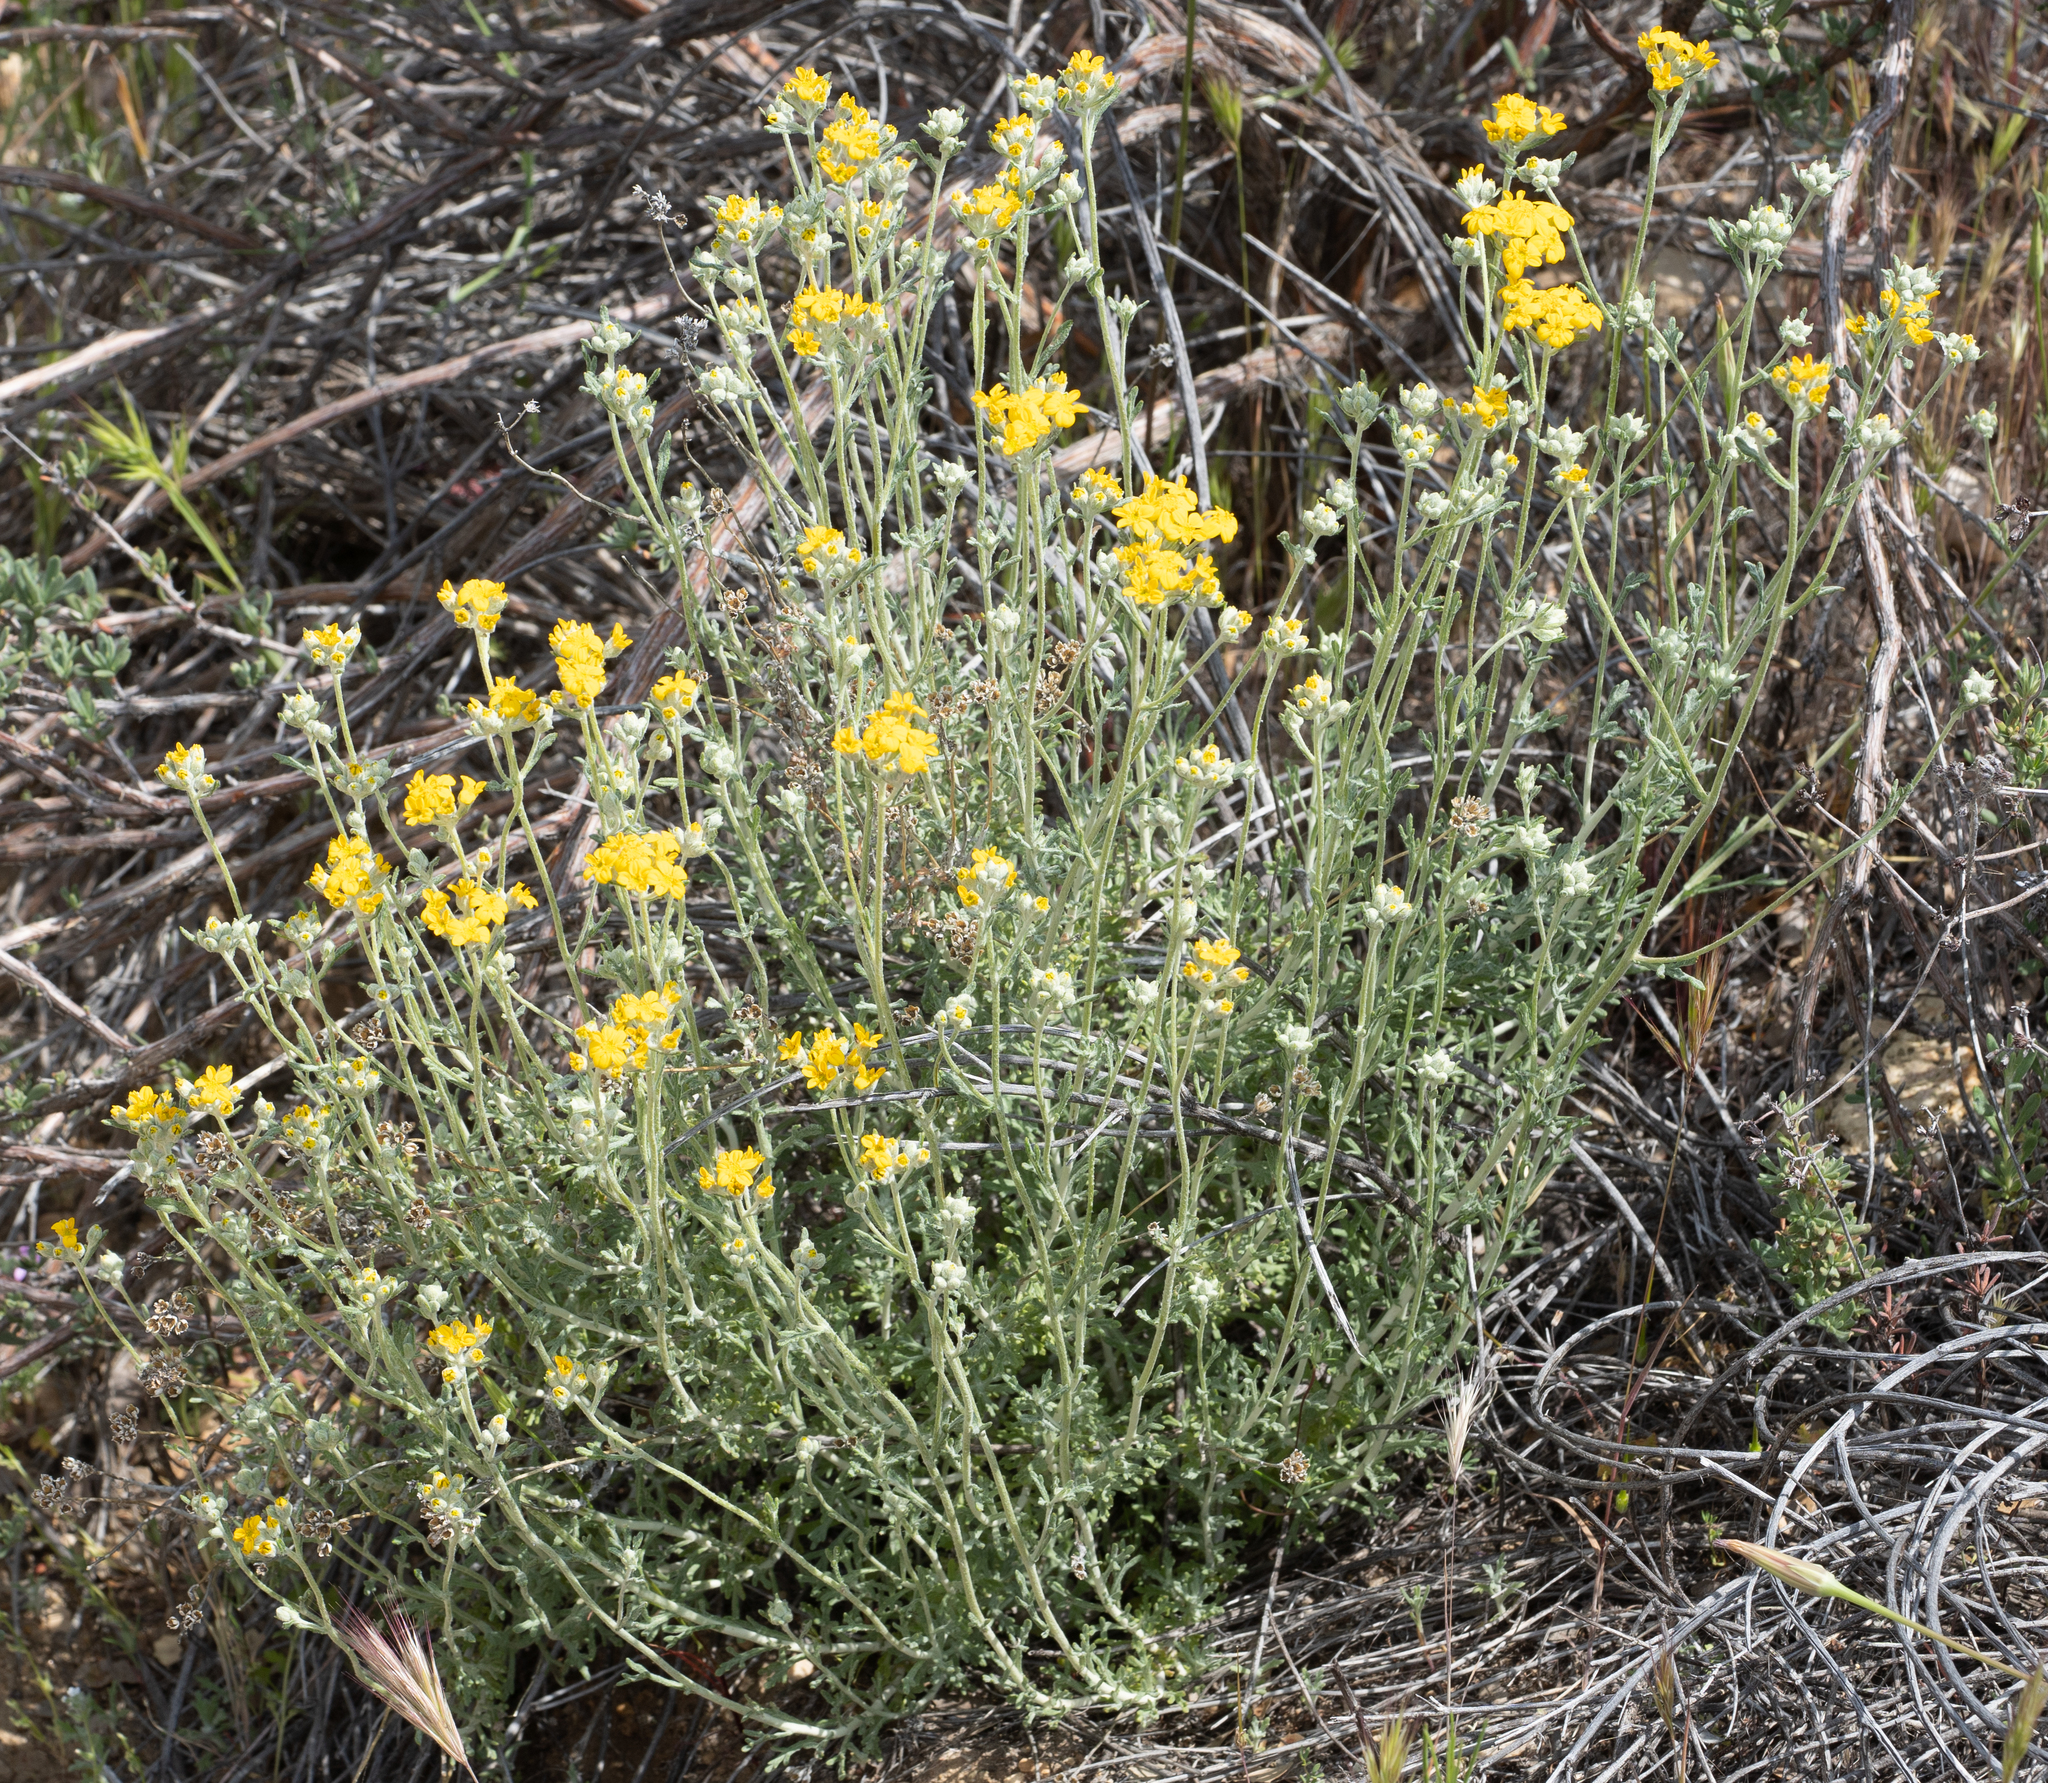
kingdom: Plantae
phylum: Tracheophyta
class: Magnoliopsida
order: Asterales
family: Asteraceae
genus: Eriophyllum
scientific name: Eriophyllum confertiflorum
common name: Golden-yarrow
